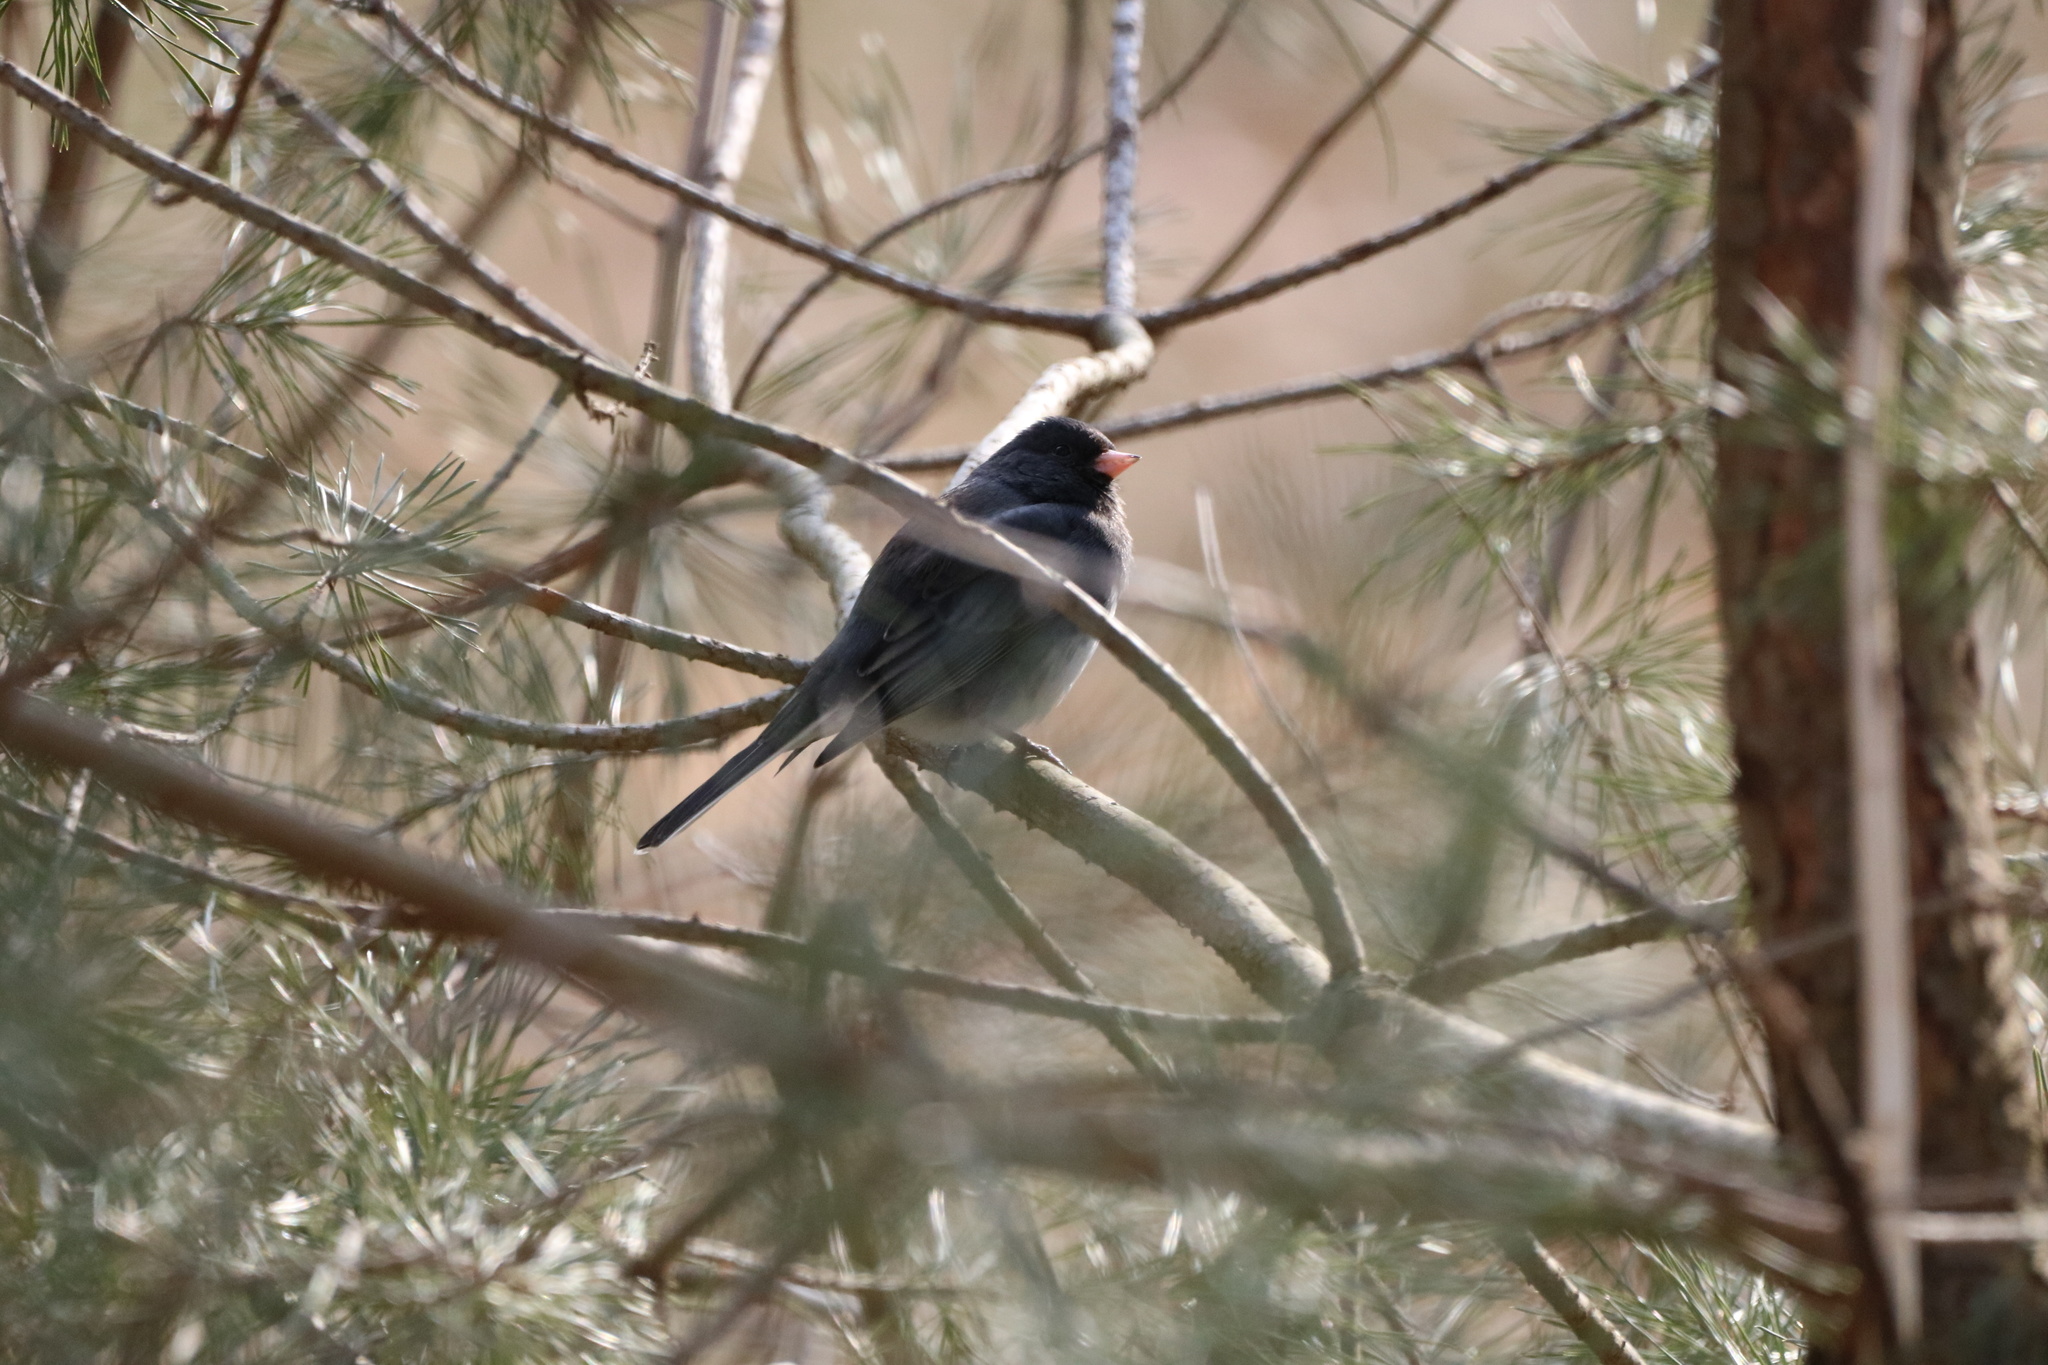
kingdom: Animalia
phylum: Chordata
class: Aves
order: Passeriformes
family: Passerellidae
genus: Junco
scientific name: Junco hyemalis
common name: Dark-eyed junco
